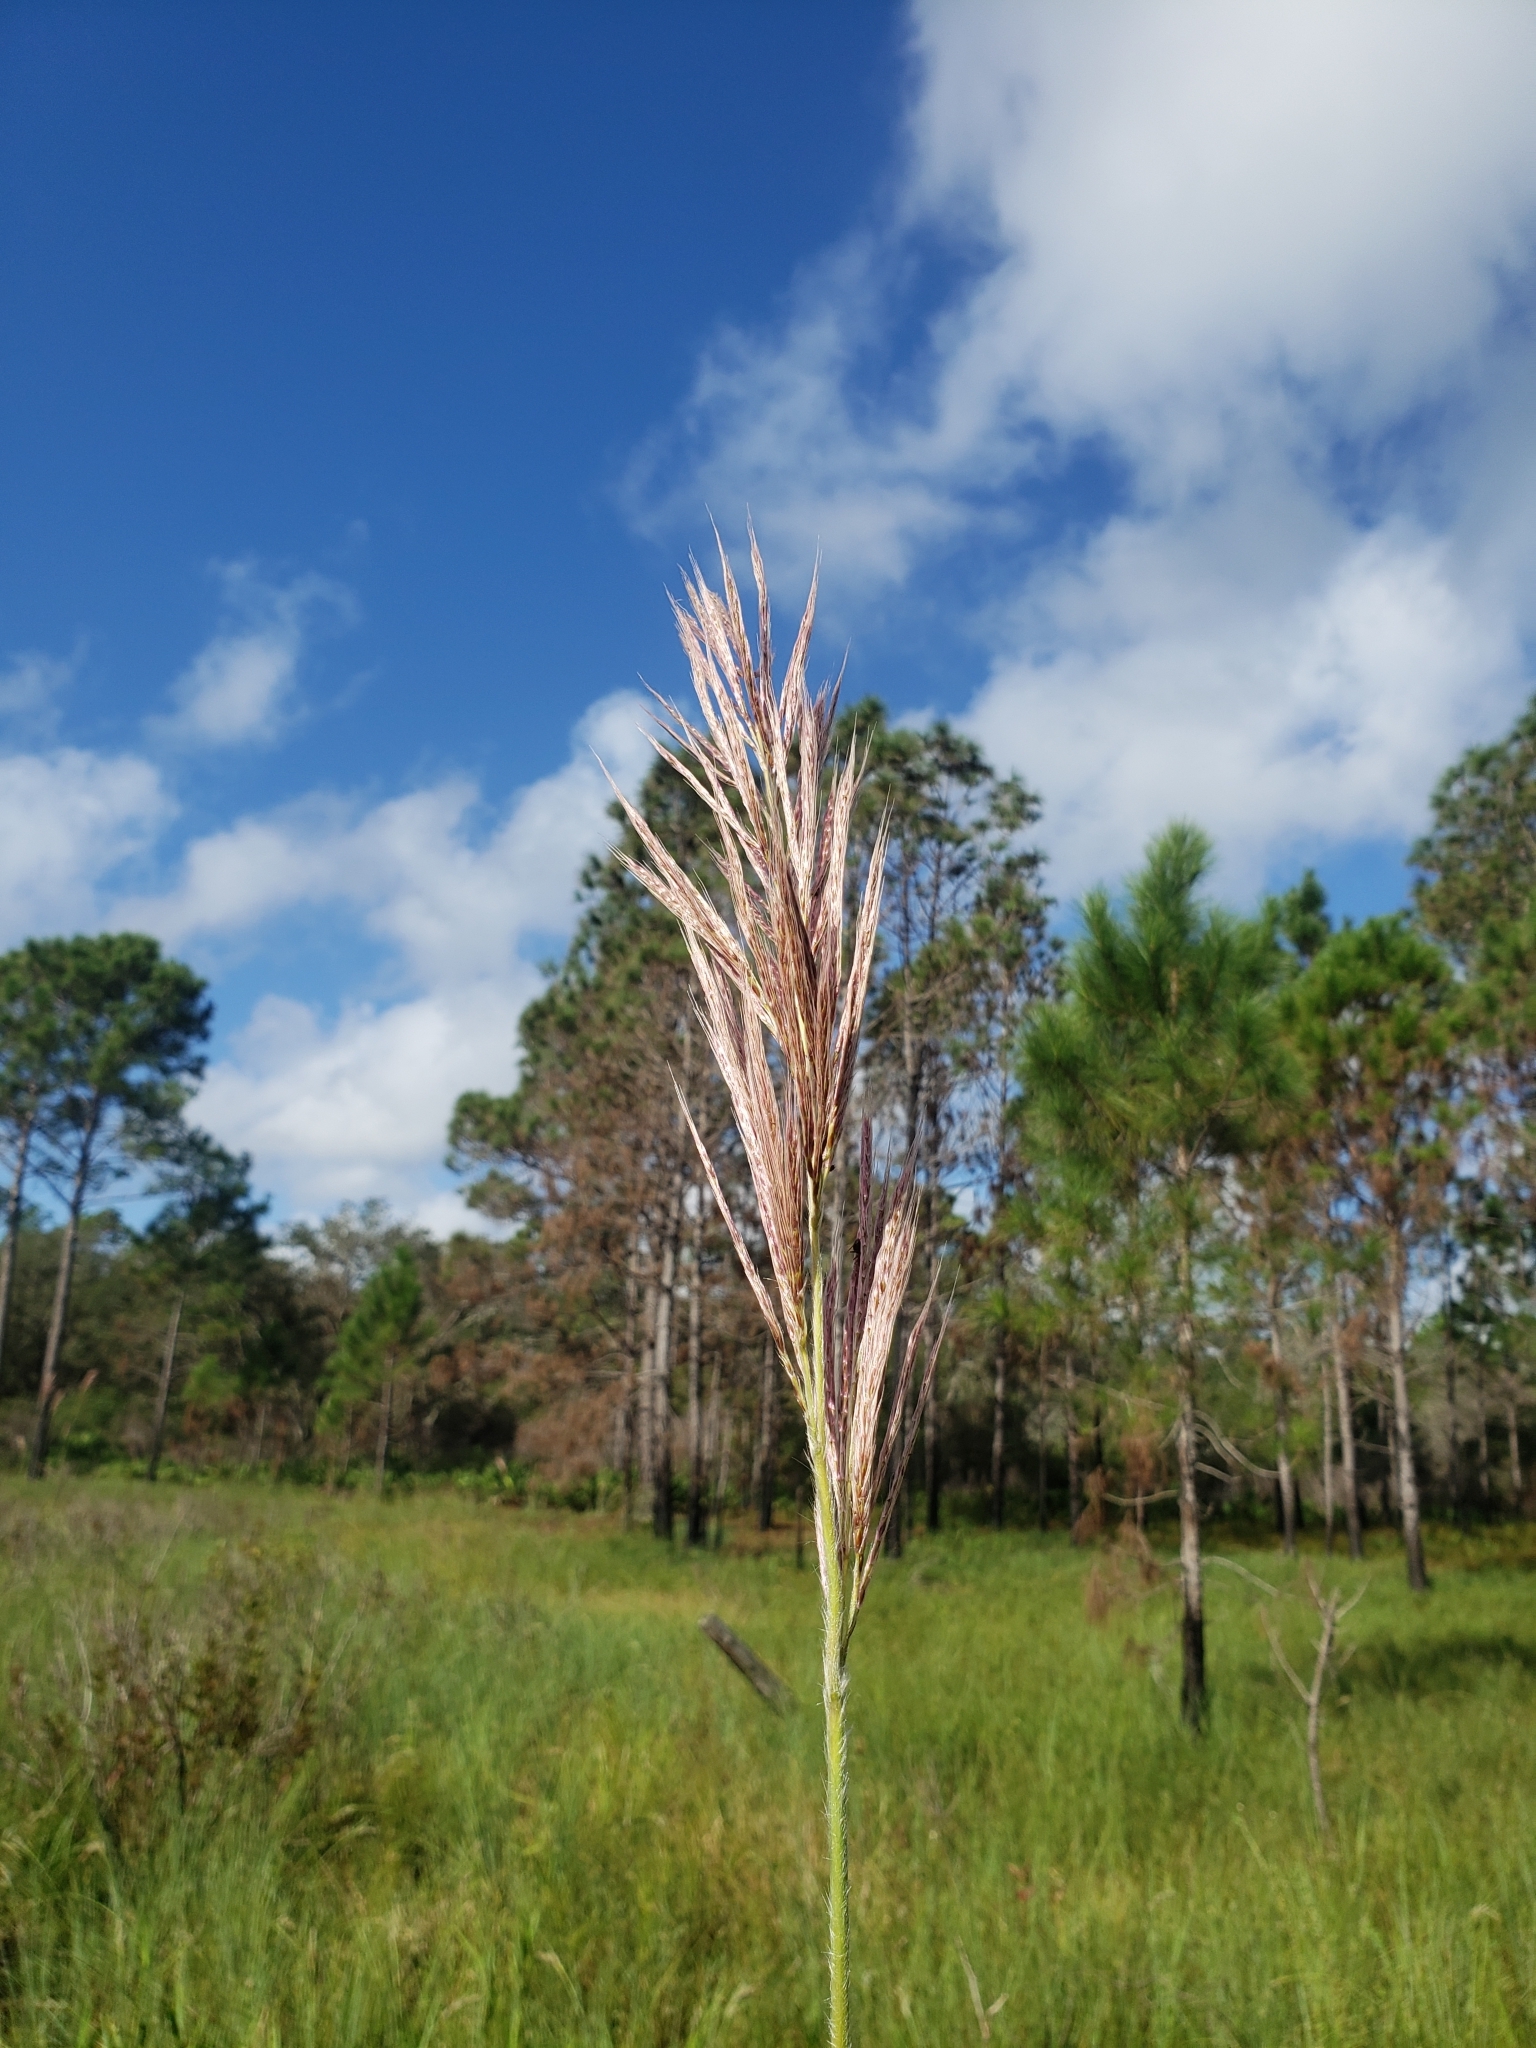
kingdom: Plantae
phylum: Tracheophyta
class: Liliopsida
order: Poales
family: Poaceae
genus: Erianthus
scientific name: Erianthus giganteus
